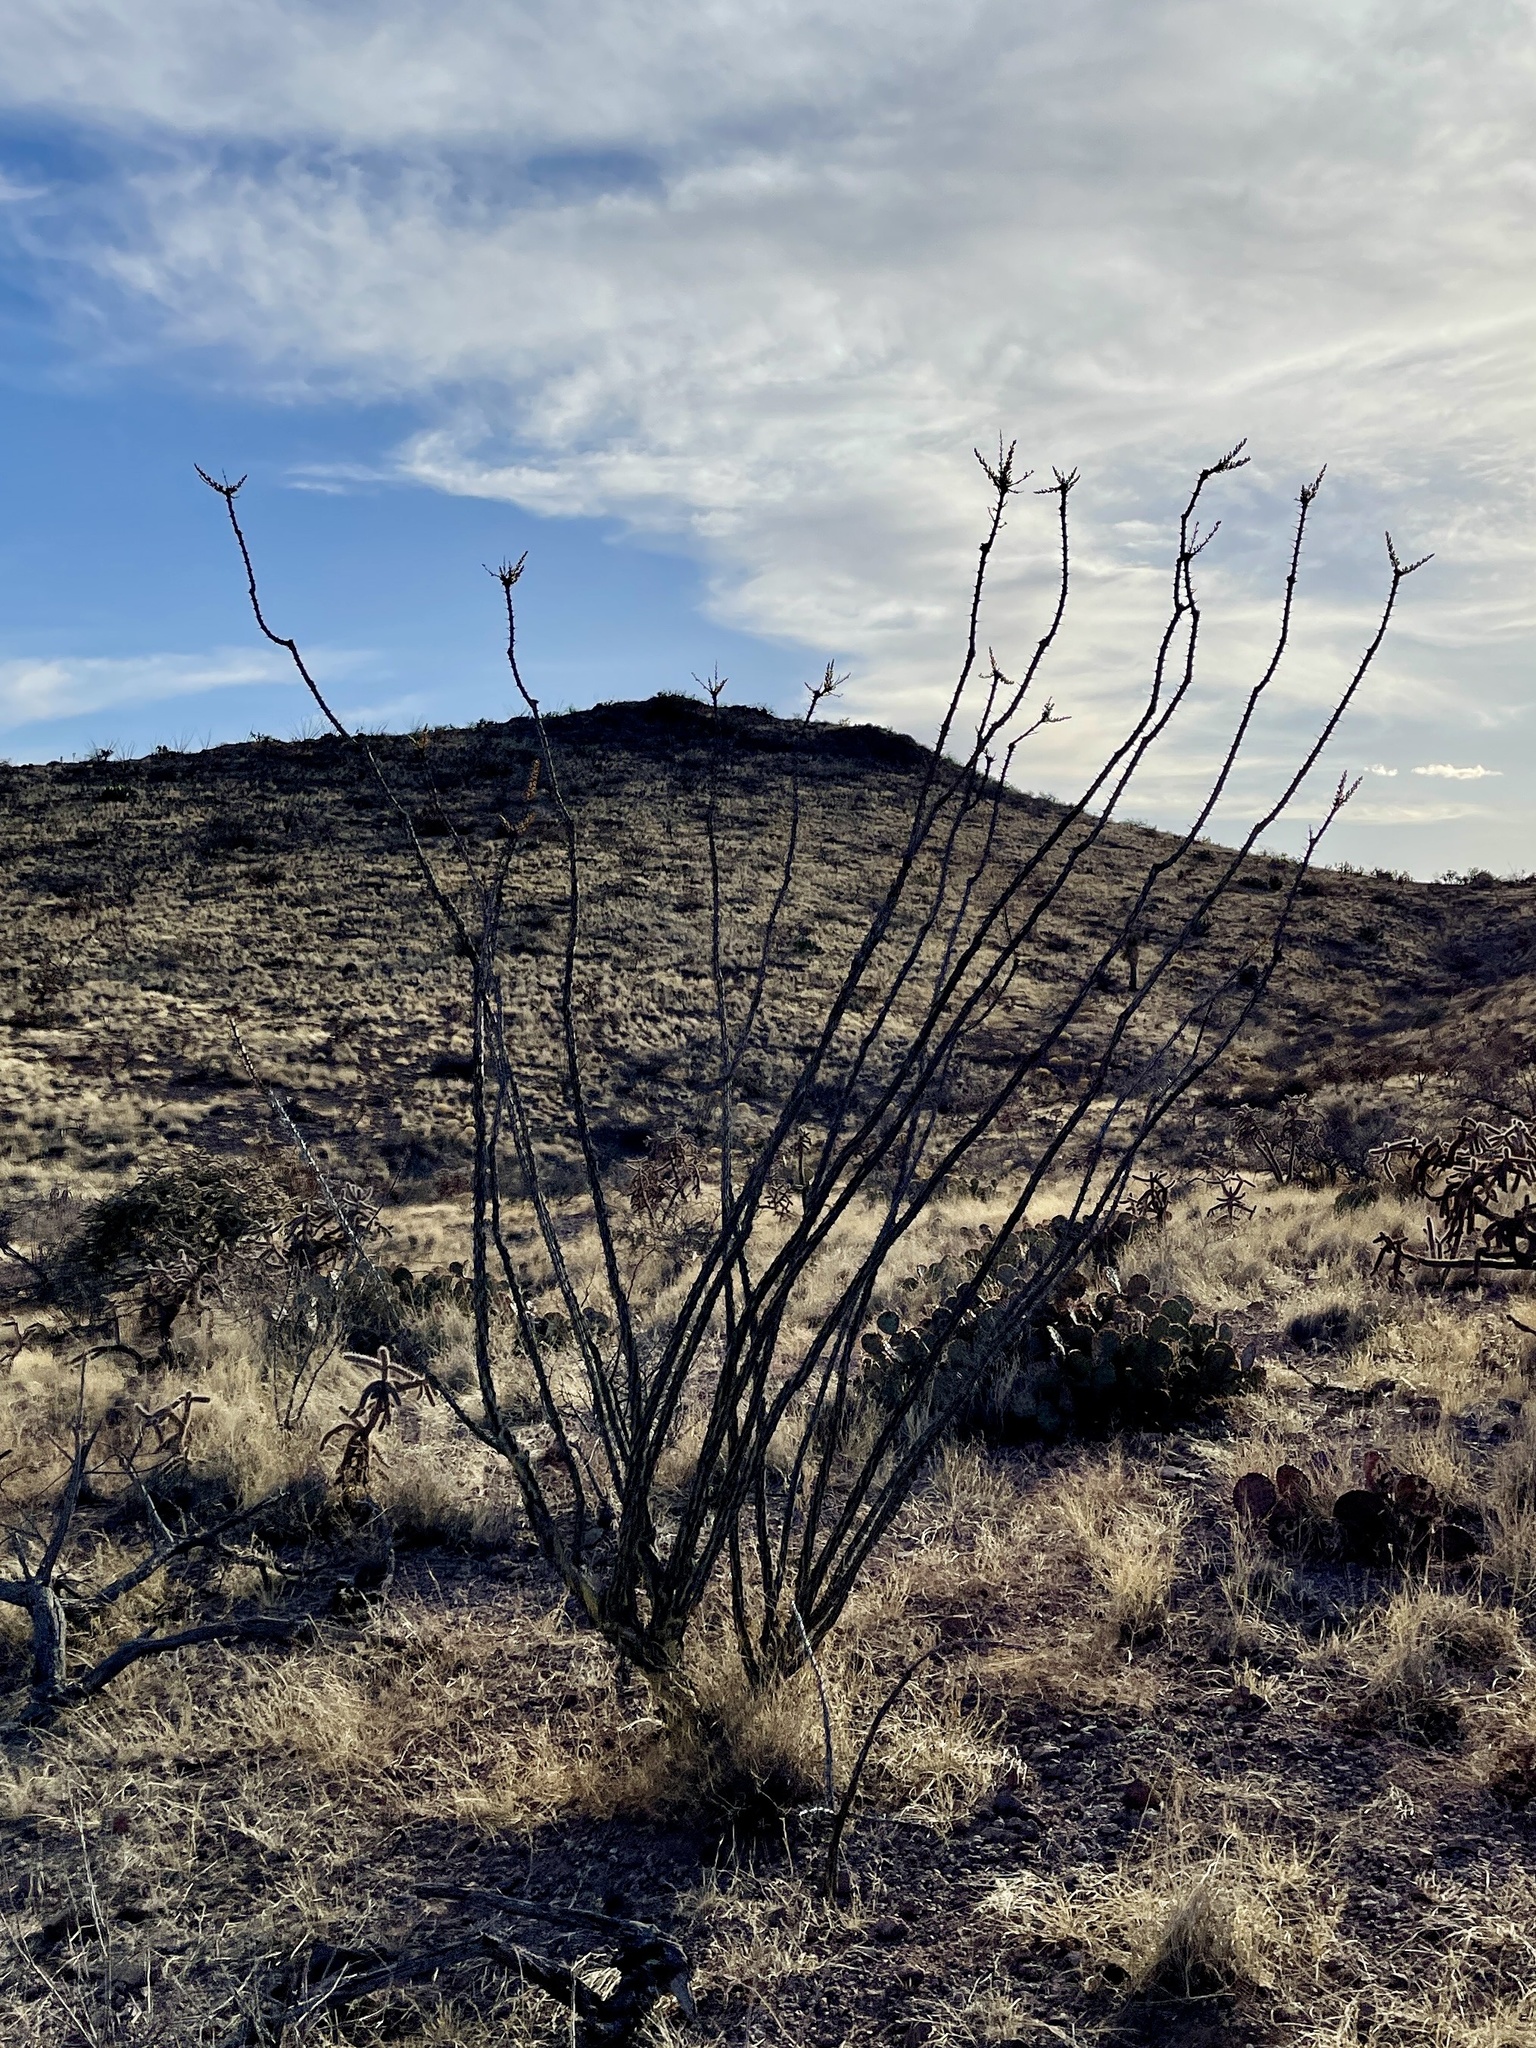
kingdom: Plantae
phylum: Tracheophyta
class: Magnoliopsida
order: Ericales
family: Fouquieriaceae
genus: Fouquieria
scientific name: Fouquieria splendens
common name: Vine-cactus
